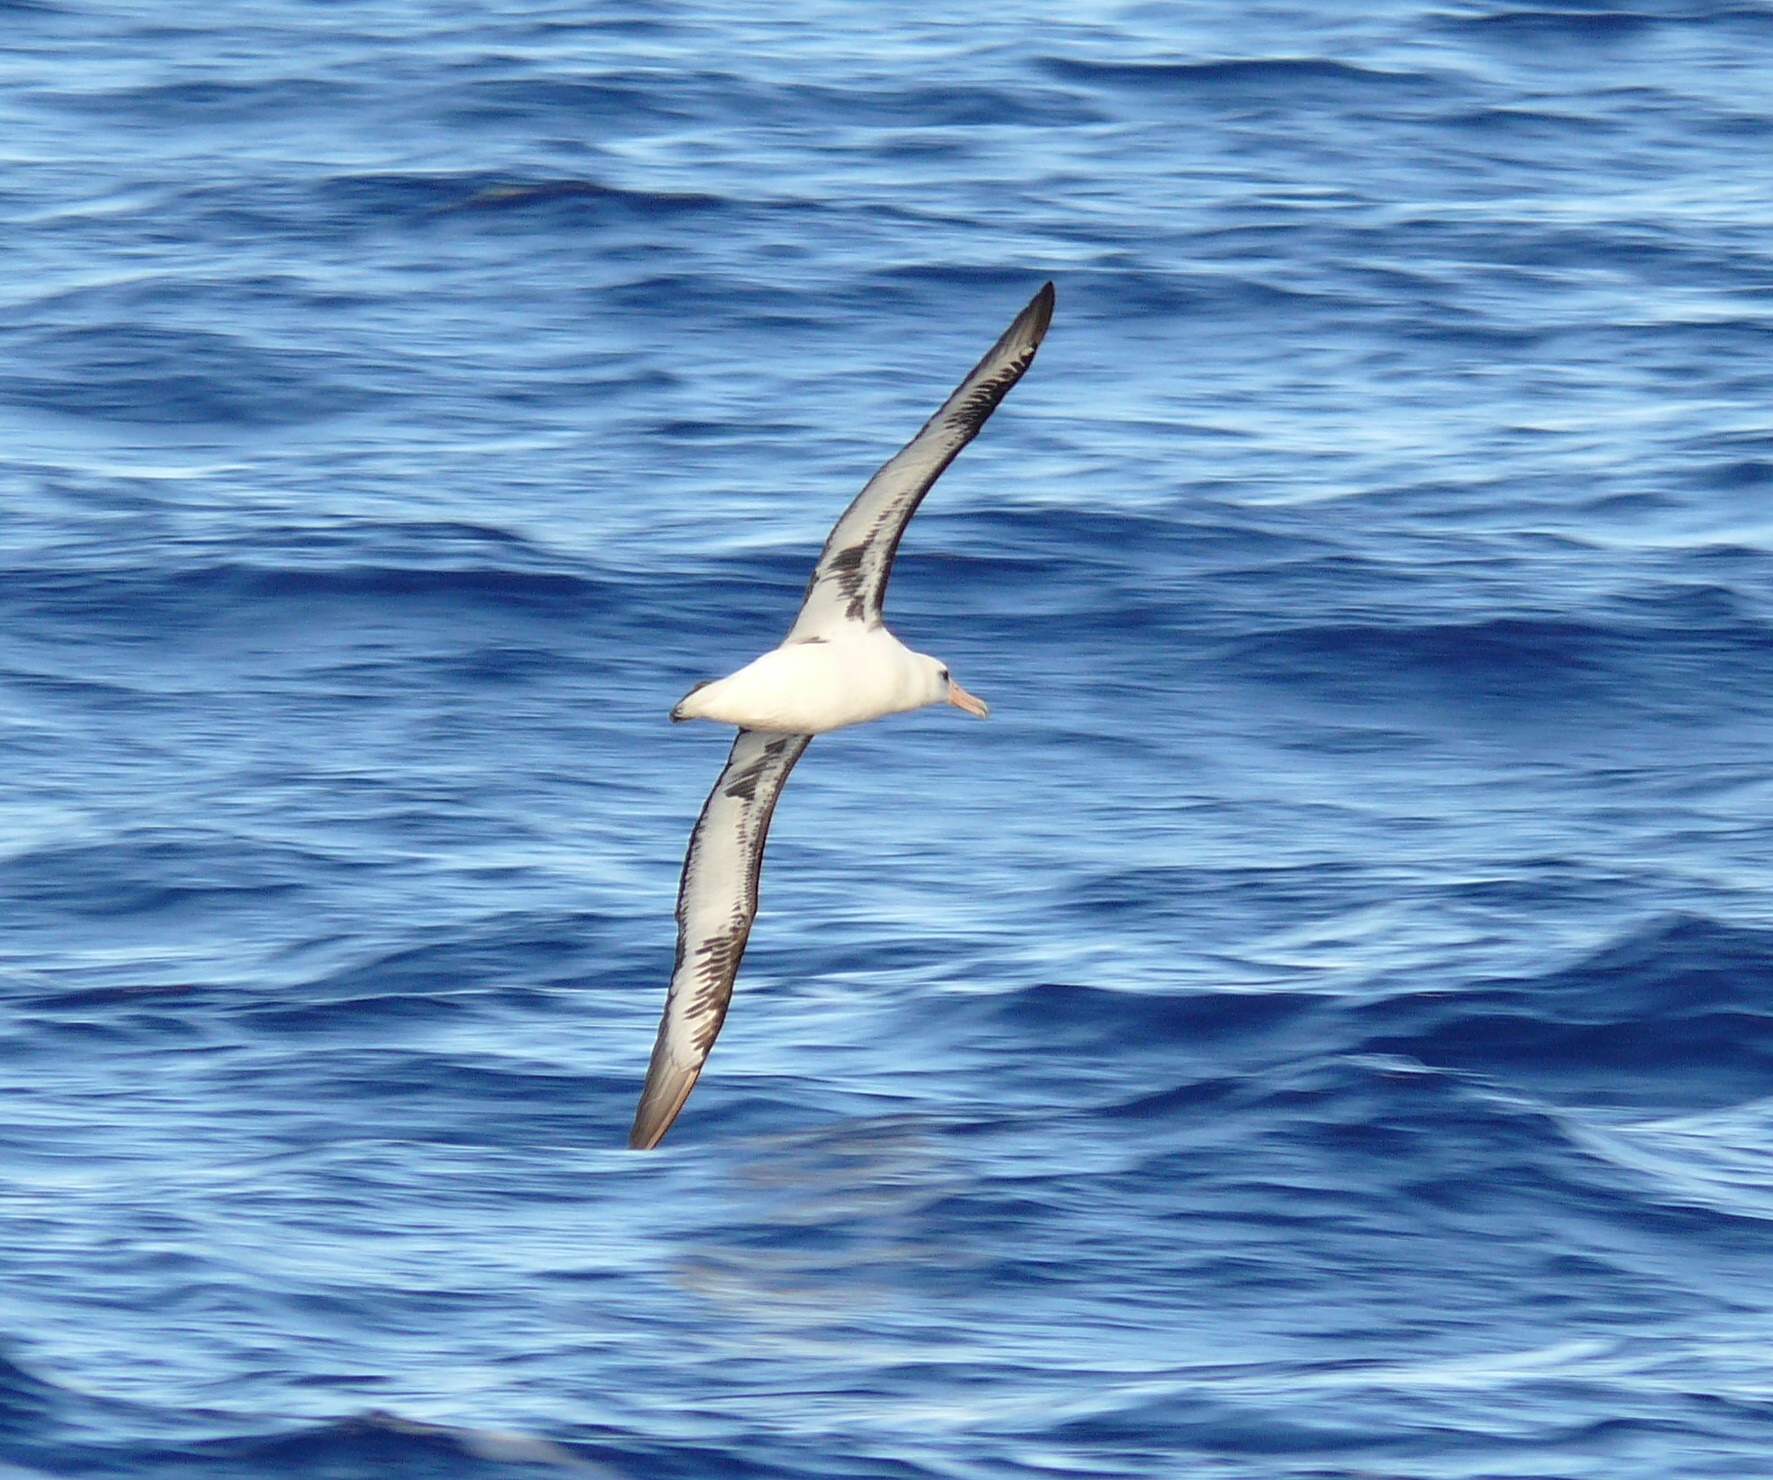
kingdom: Animalia
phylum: Chordata
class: Aves
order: Procellariiformes
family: Diomedeidae
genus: Phoebastria
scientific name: Phoebastria immutabilis
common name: Laysan albatross
